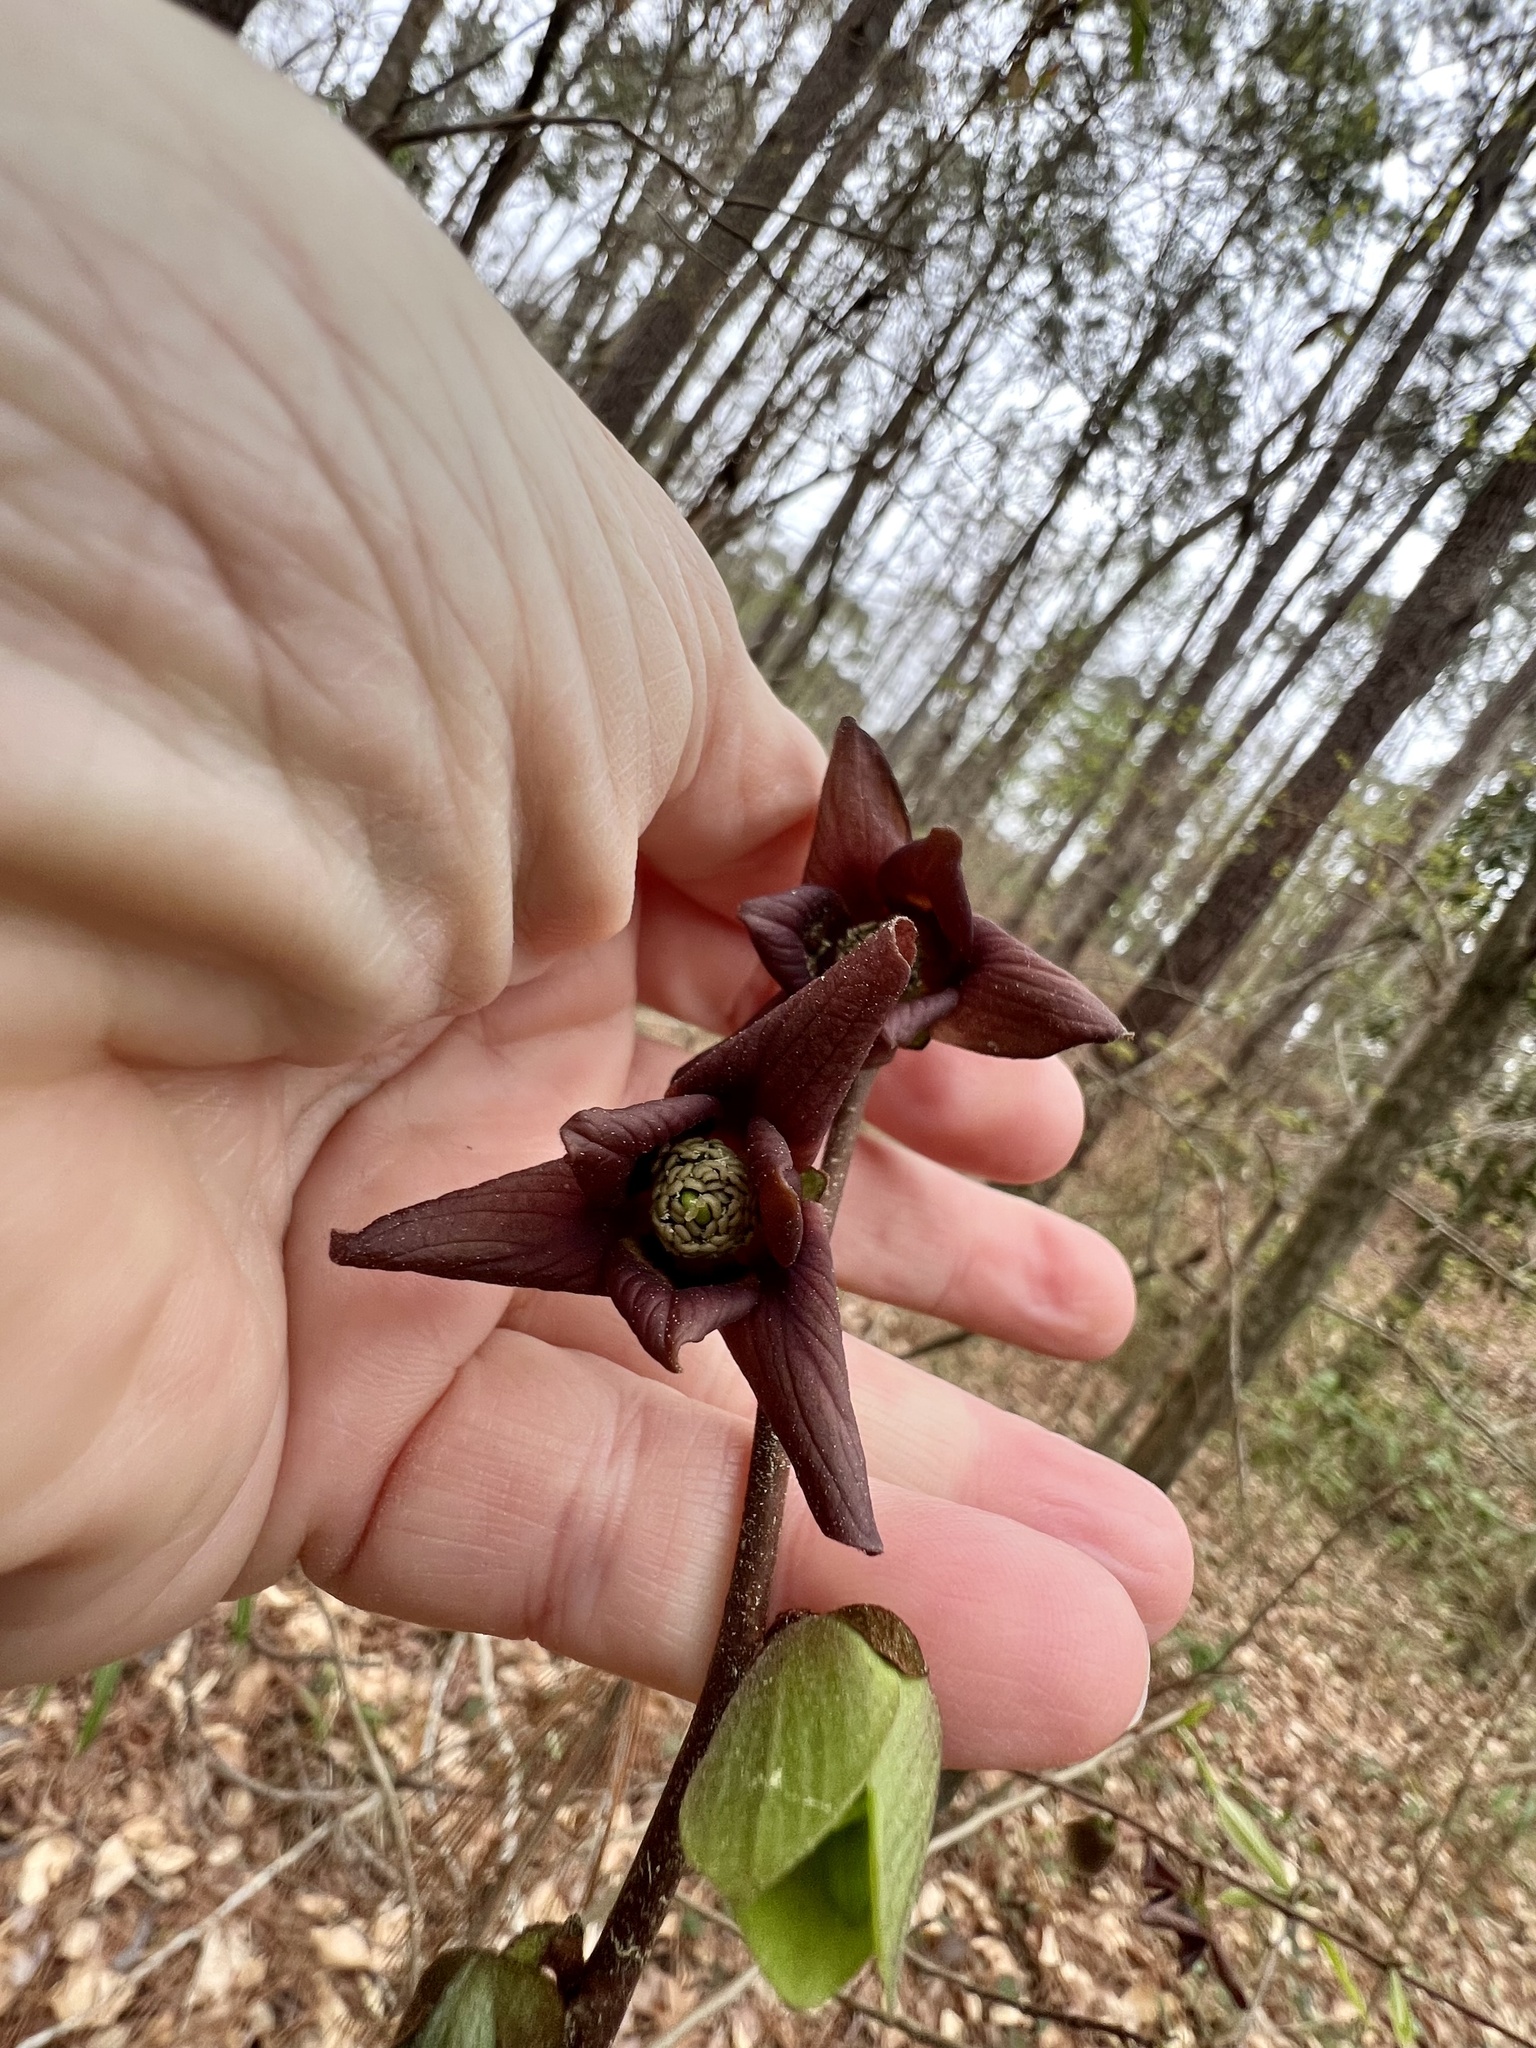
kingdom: Plantae
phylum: Tracheophyta
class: Magnoliopsida
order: Magnoliales
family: Annonaceae
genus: Asimina
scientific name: Asimina piedmontana
